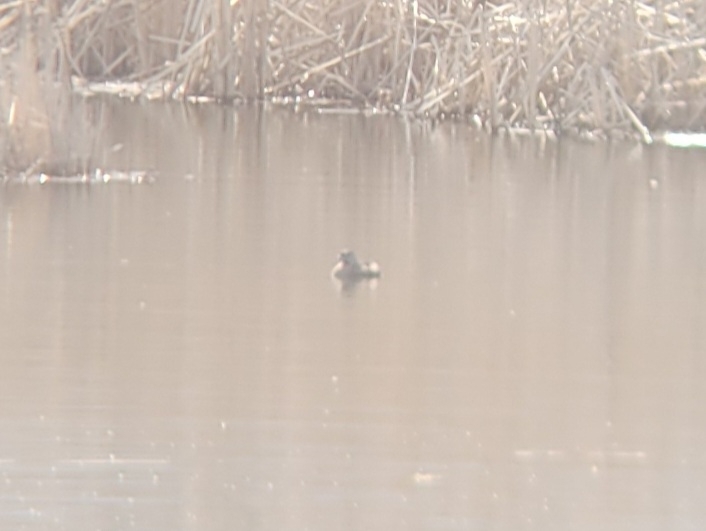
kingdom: Animalia
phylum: Chordata
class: Aves
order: Podicipediformes
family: Podicipedidae
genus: Podilymbus
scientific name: Podilymbus podiceps
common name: Pied-billed grebe
